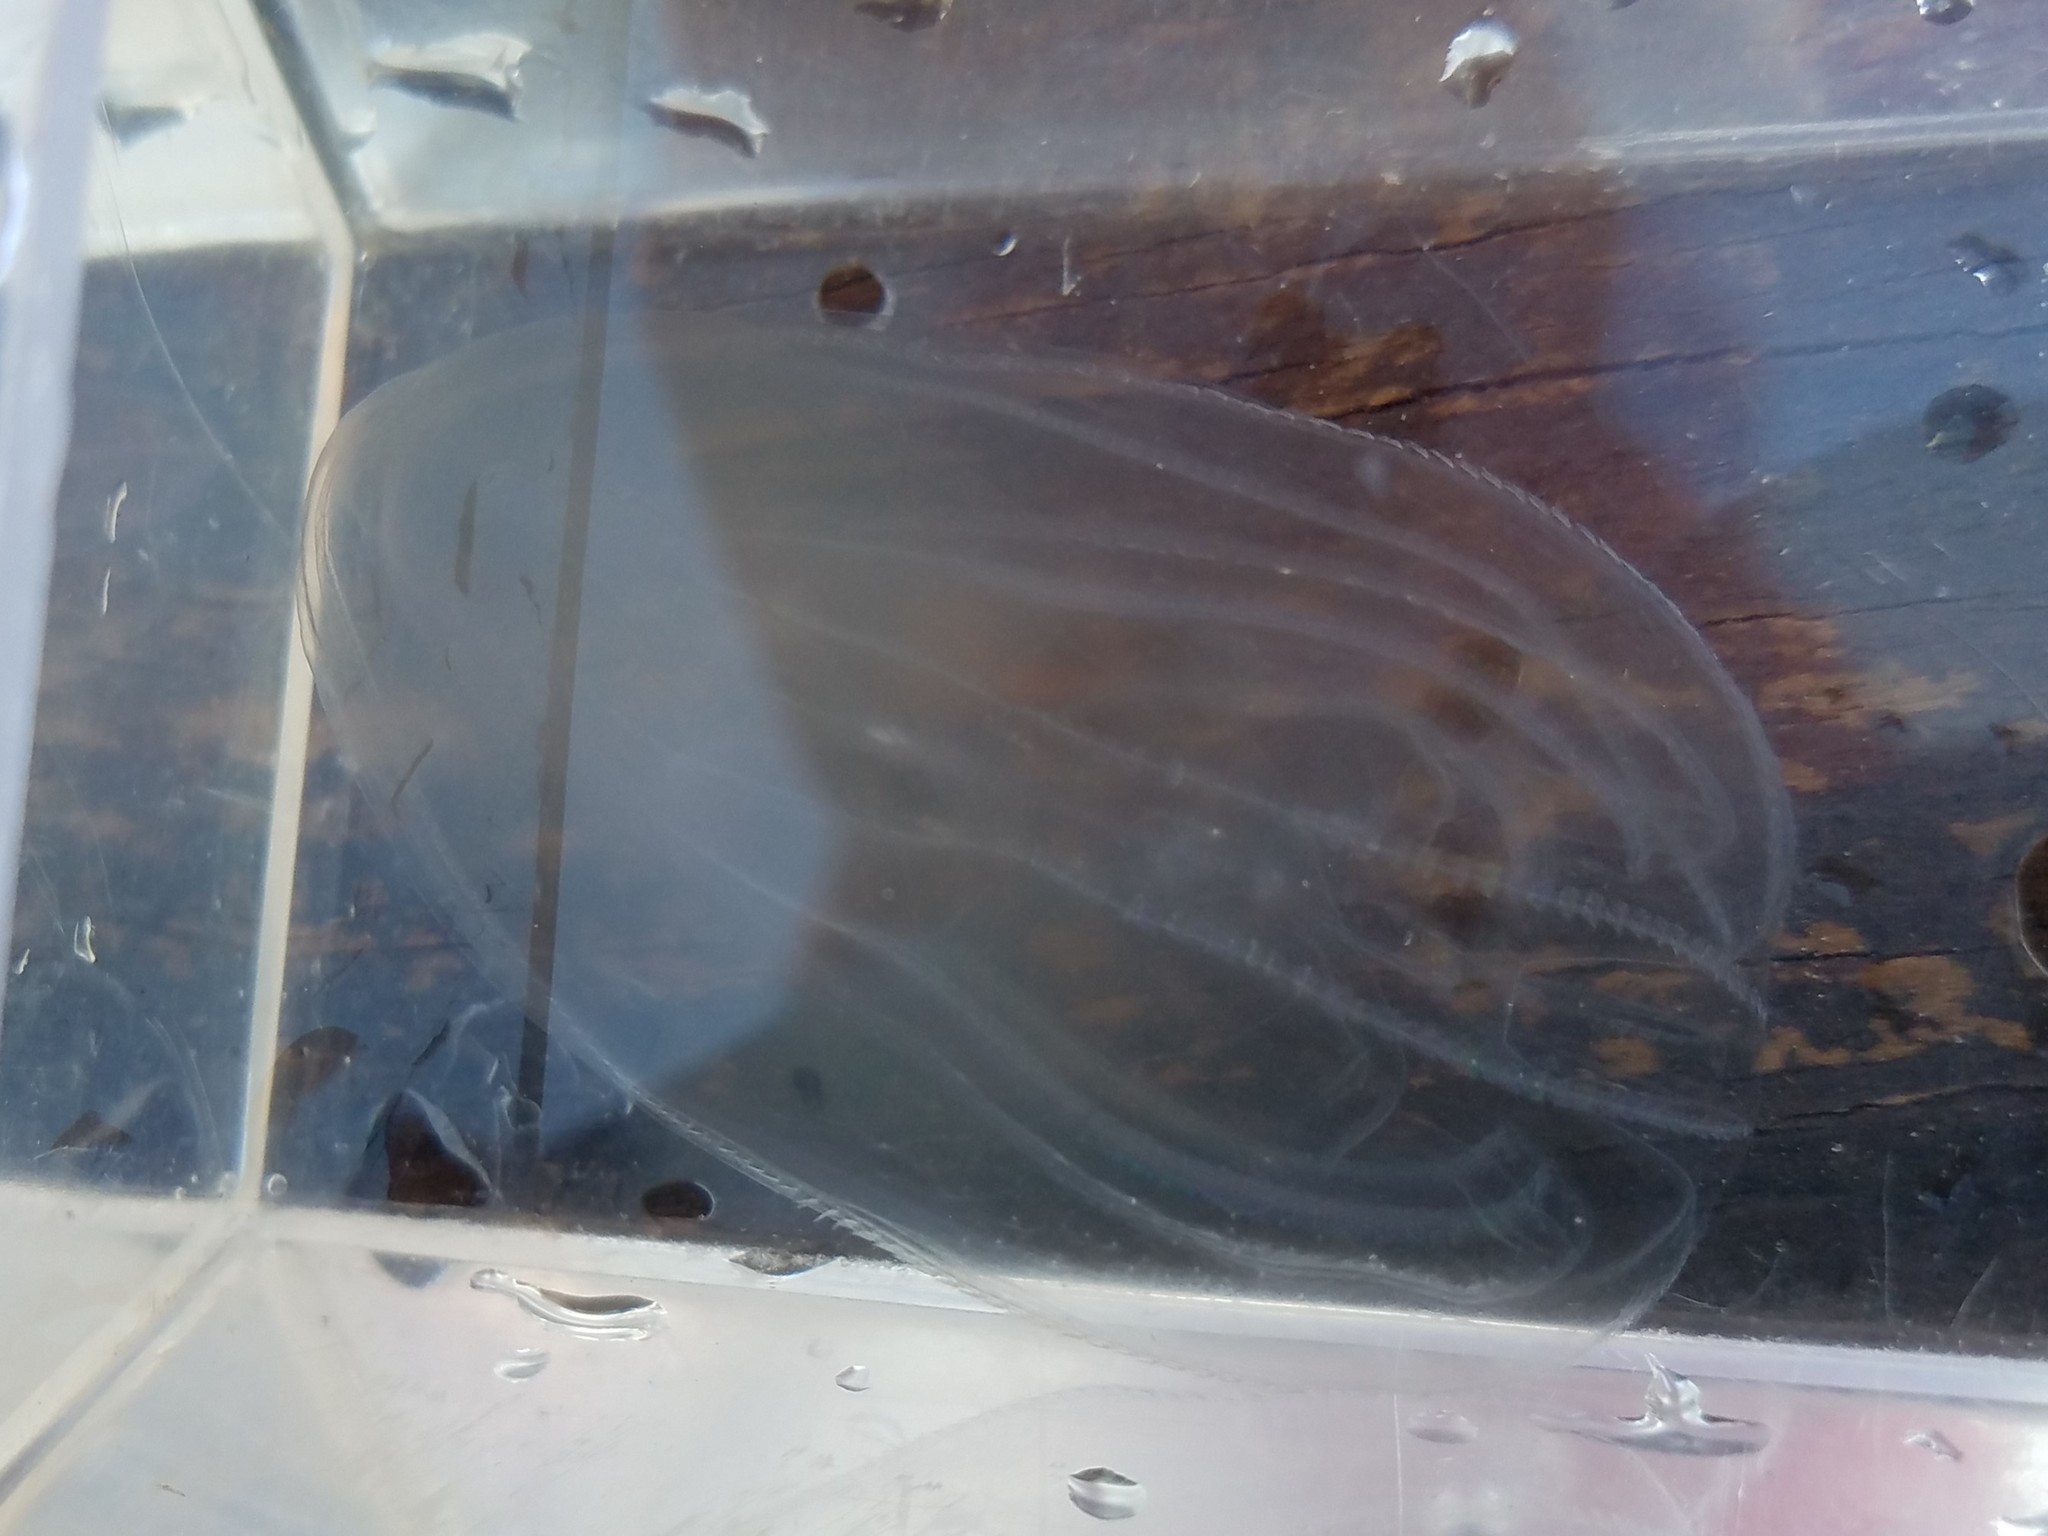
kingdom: Animalia
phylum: Ctenophora
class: Tentaculata
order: Lobata
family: Bolinopsidae
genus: Mnemiopsis
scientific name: Mnemiopsis leidyi
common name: American comb jelly
